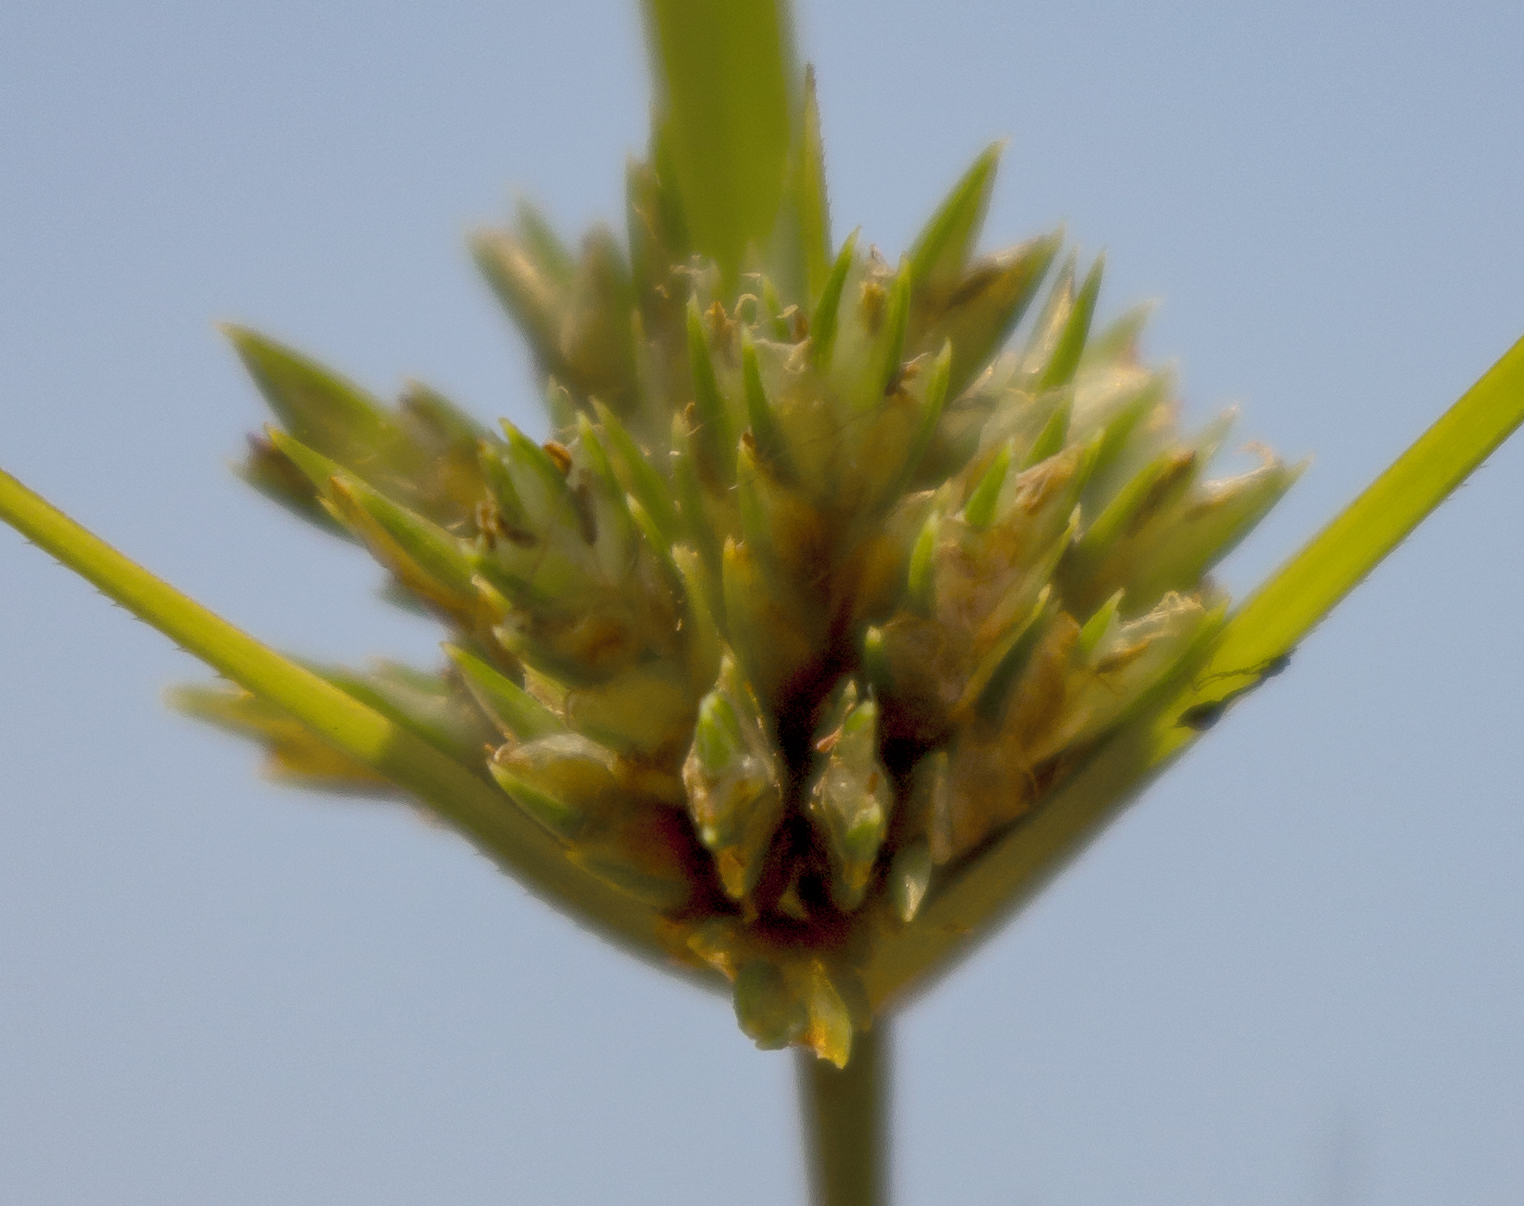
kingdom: Plantae
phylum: Tracheophyta
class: Liliopsida
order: Poales
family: Cyperaceae
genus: Cyperus
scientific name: Cyperus lupulinus
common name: Great plains flatsedge
